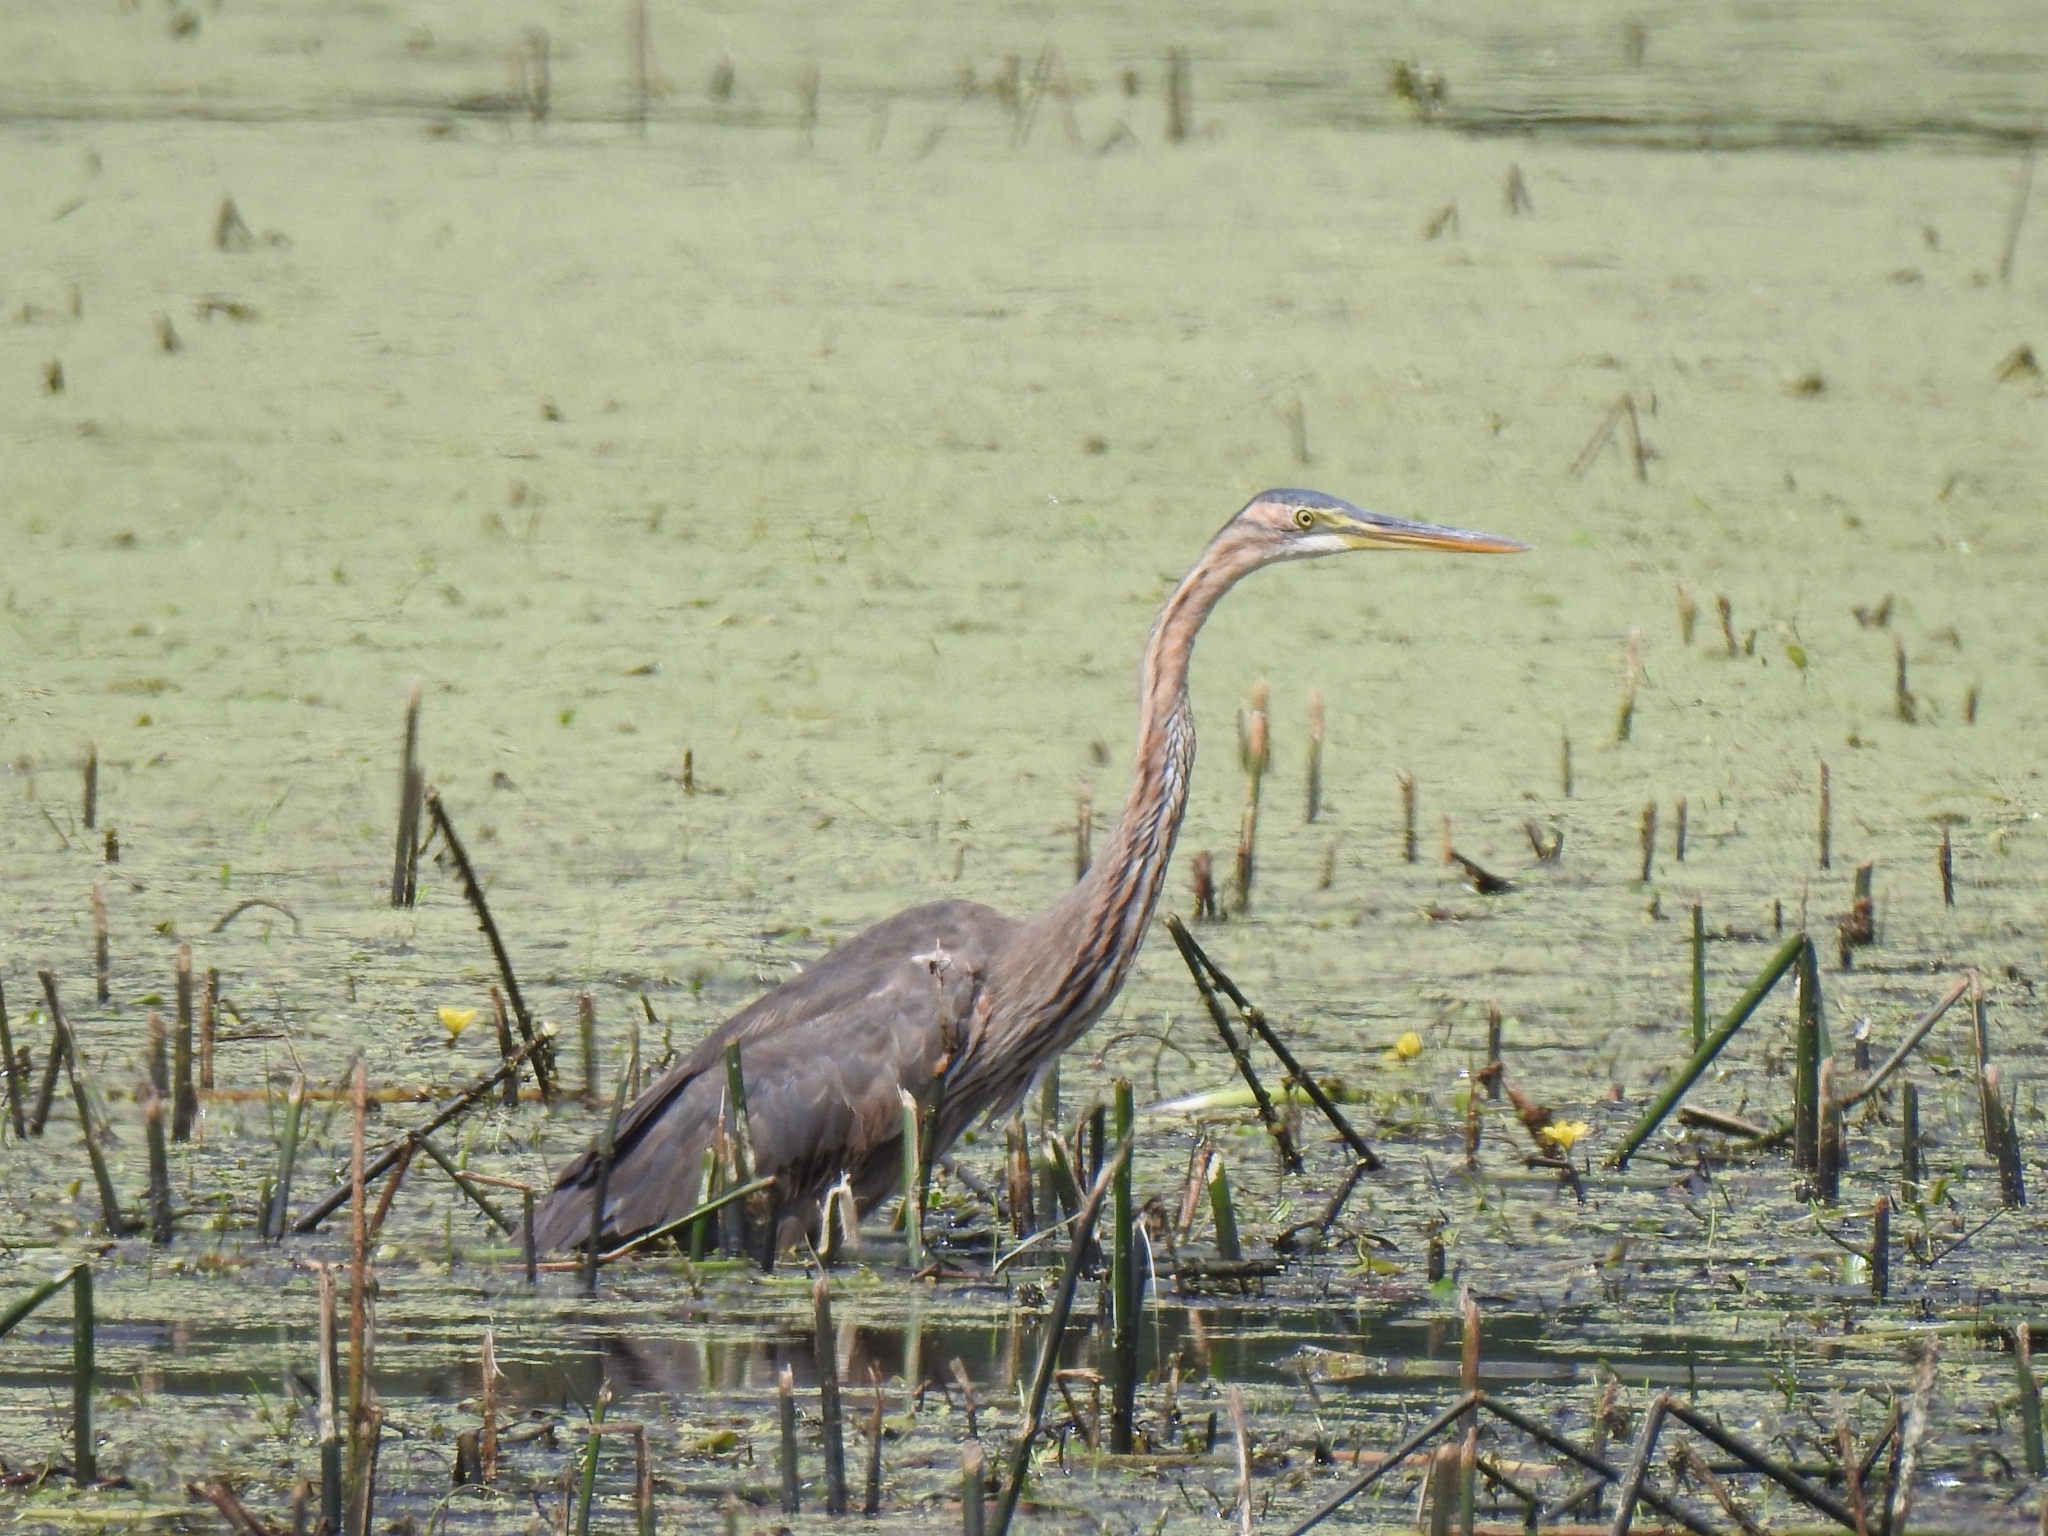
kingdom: Animalia
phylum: Chordata
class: Aves
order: Pelecaniformes
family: Ardeidae
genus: Ardea
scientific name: Ardea purpurea
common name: Purple heron
